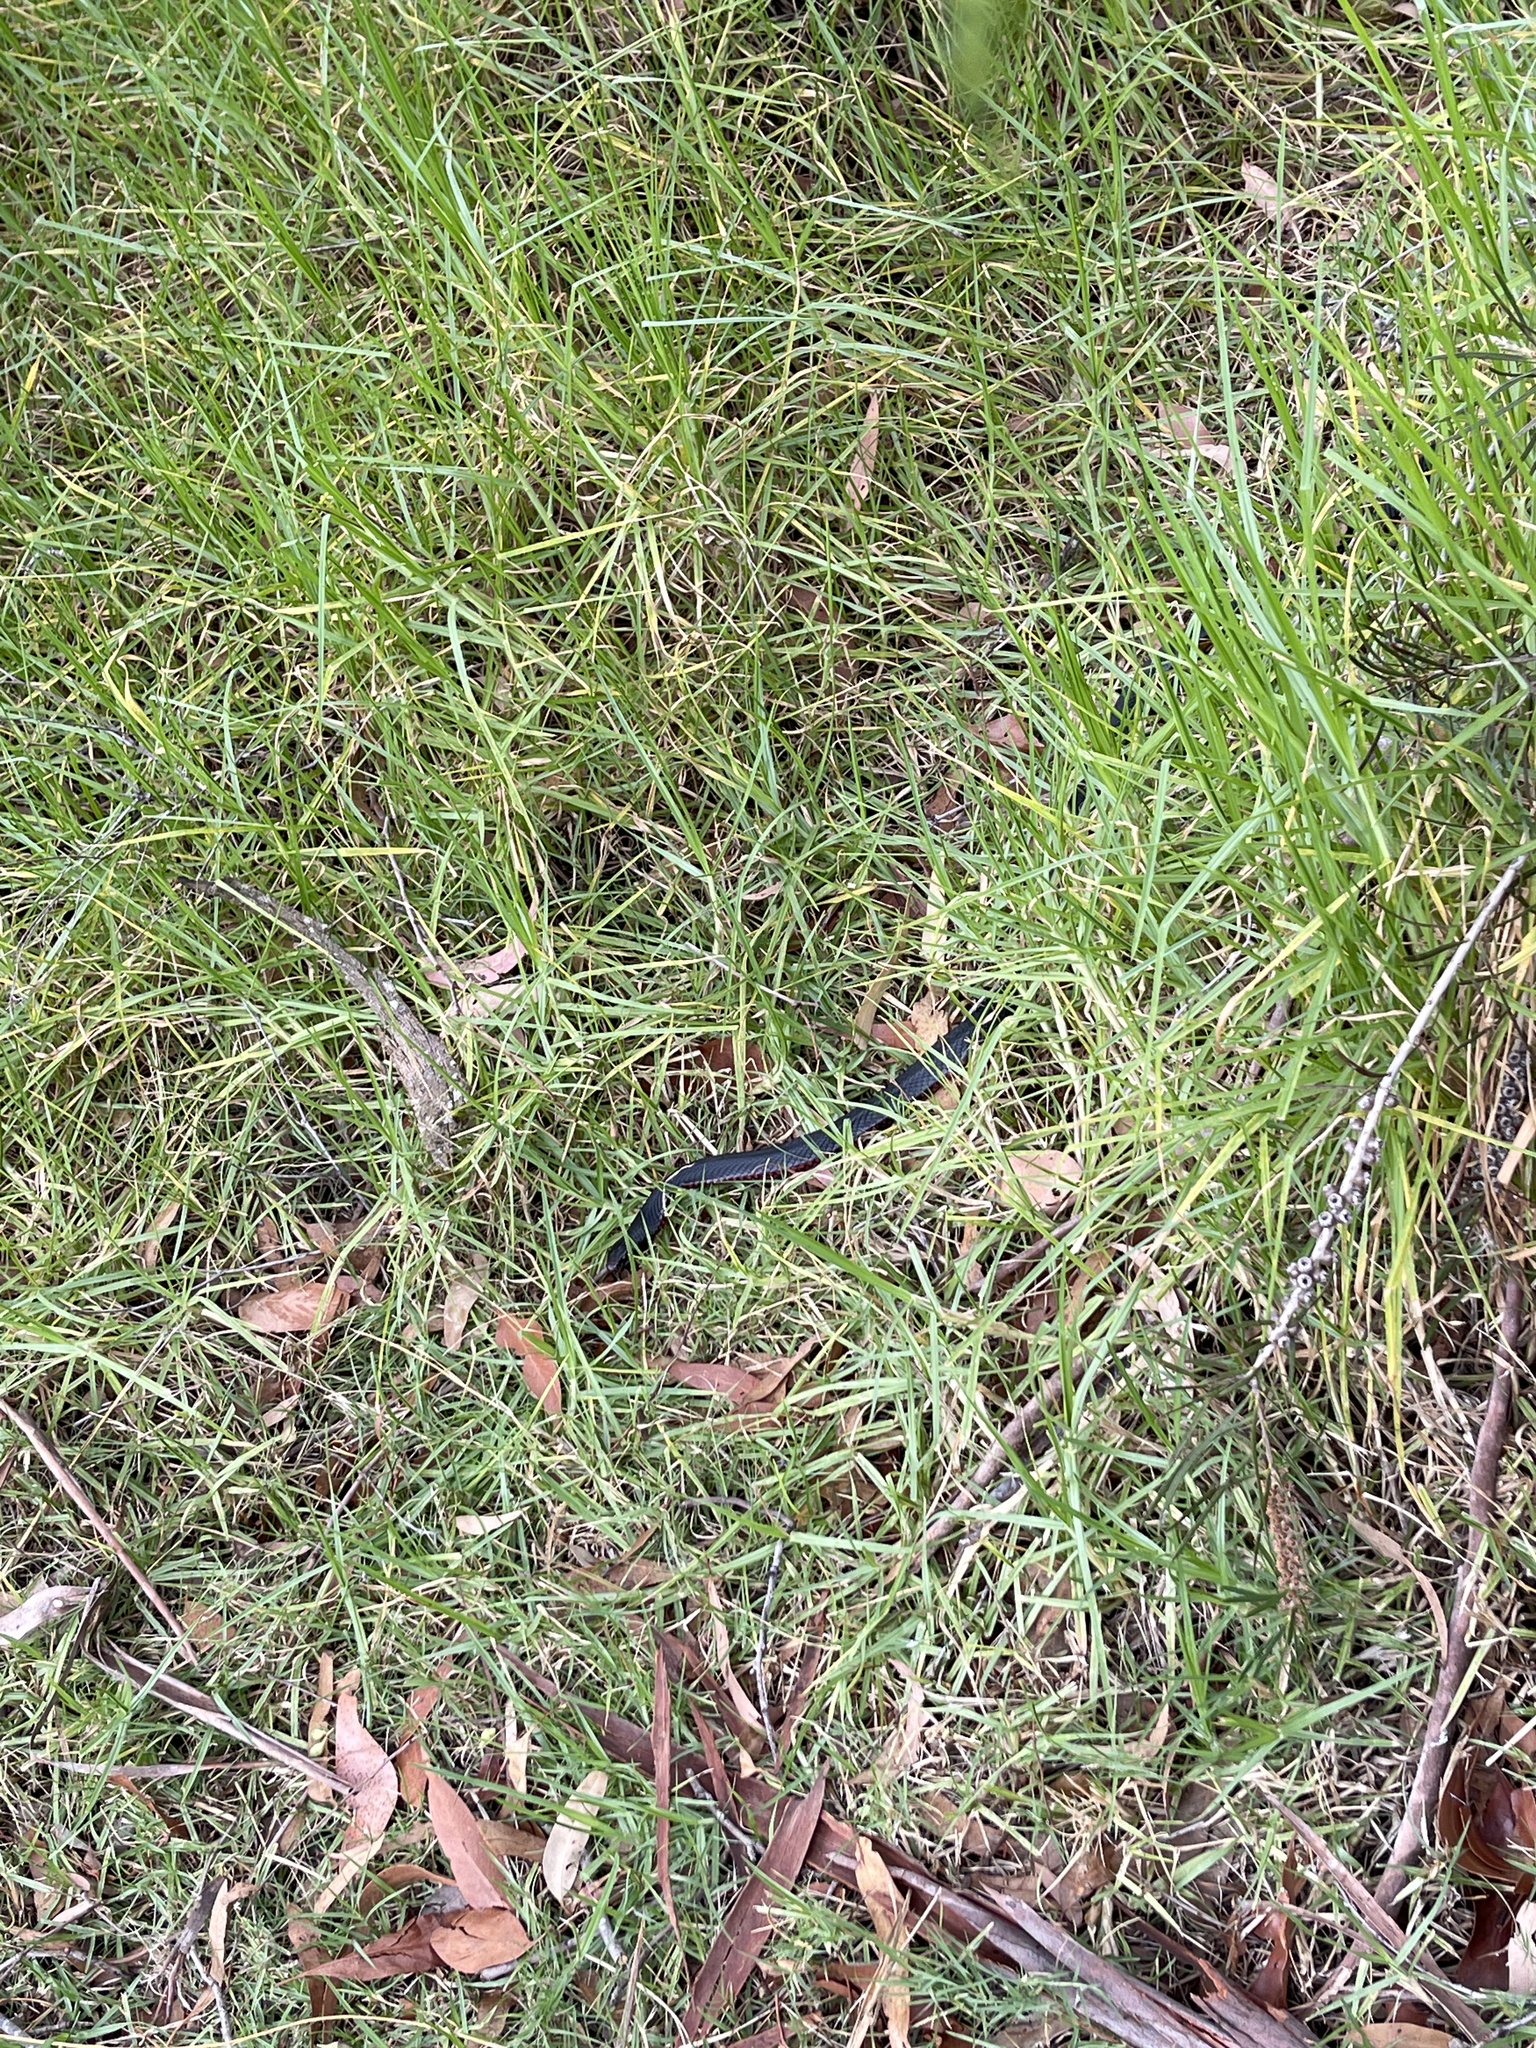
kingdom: Animalia
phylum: Chordata
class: Squamata
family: Elapidae
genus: Pseudechis
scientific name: Pseudechis porphyriacus
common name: Australian black snake
